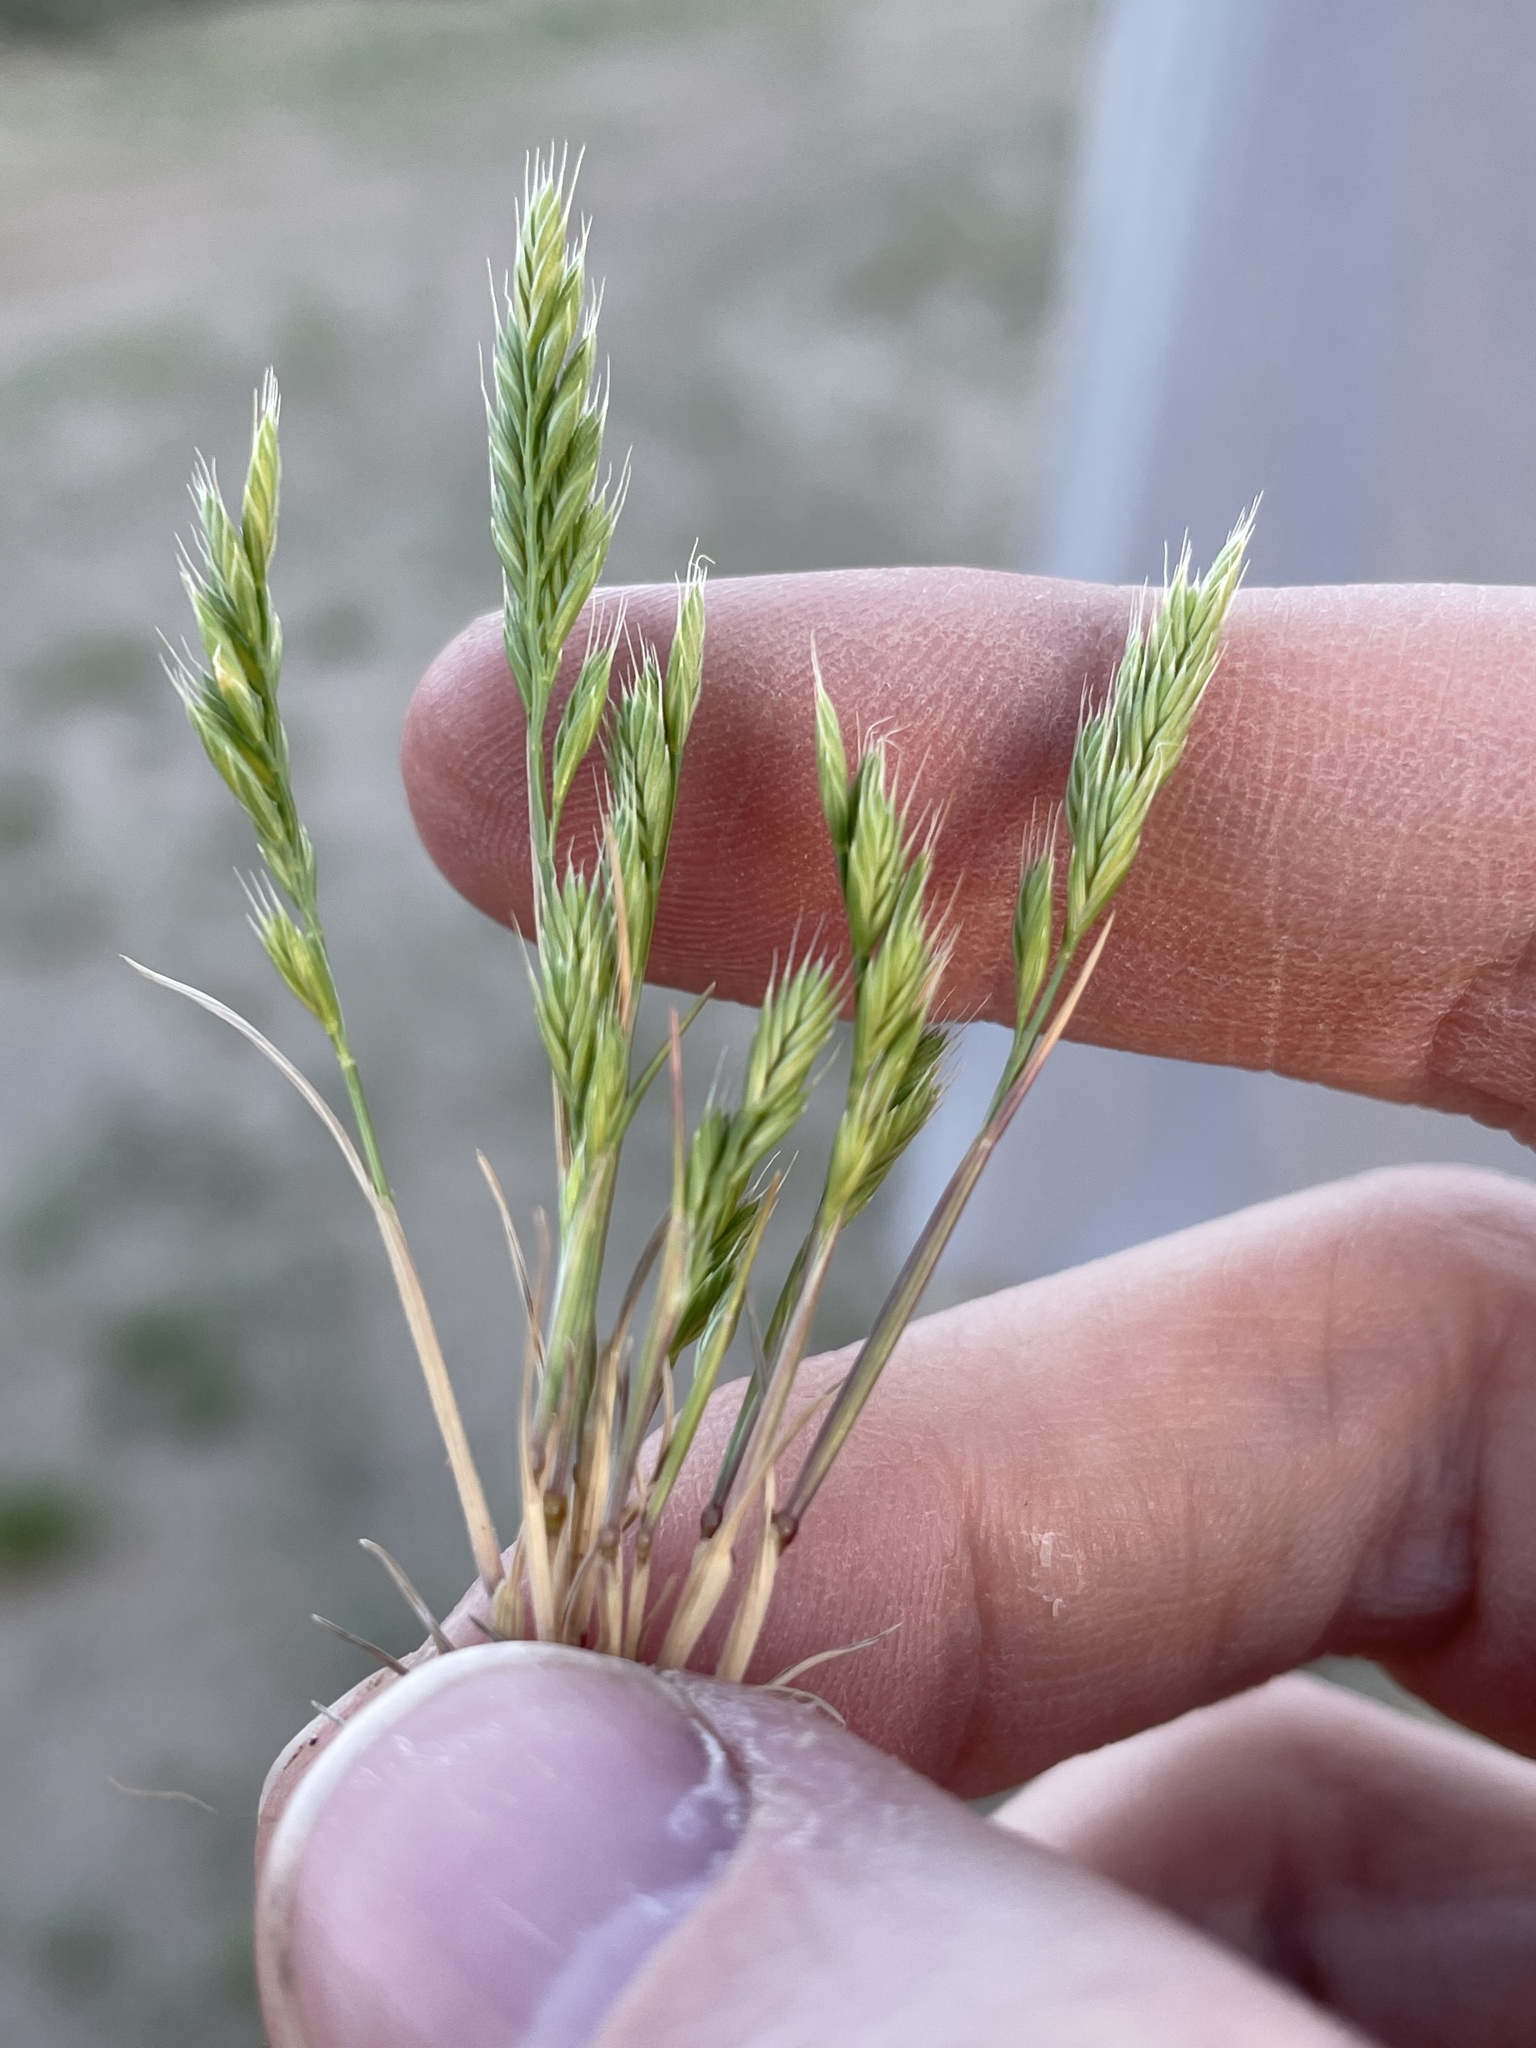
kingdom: Plantae
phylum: Tracheophyta
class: Liliopsida
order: Poales
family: Poaceae
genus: Festuca
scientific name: Festuca octoflora
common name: Sixweeks grass
